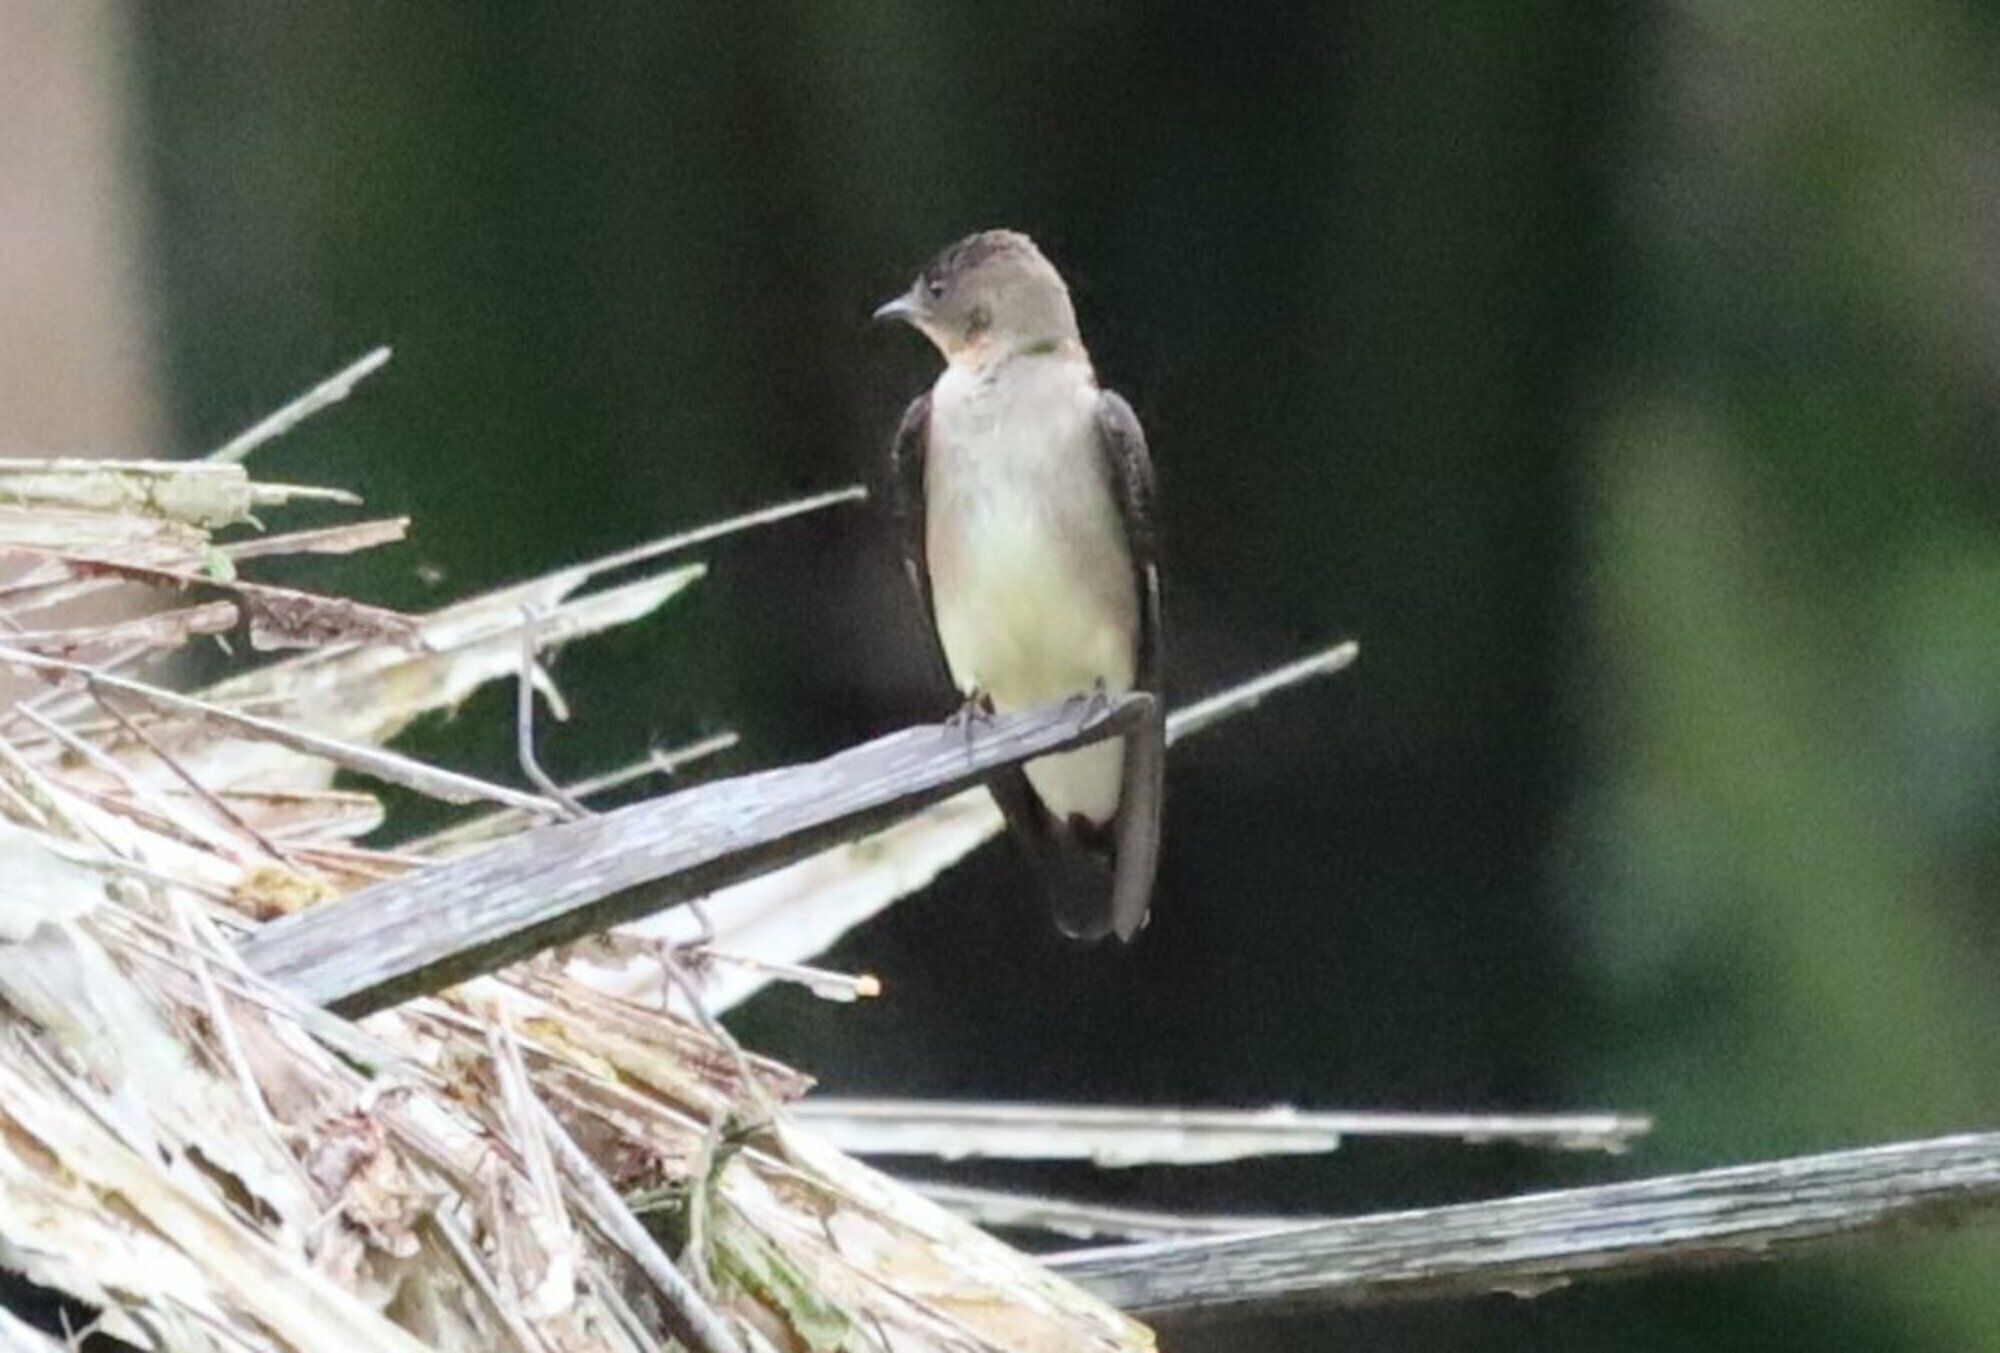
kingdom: Animalia
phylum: Chordata
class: Aves
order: Passeriformes
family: Hirundinidae
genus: Stelgidopteryx
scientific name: Stelgidopteryx ruficollis
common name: Southern rough-winged swallow
